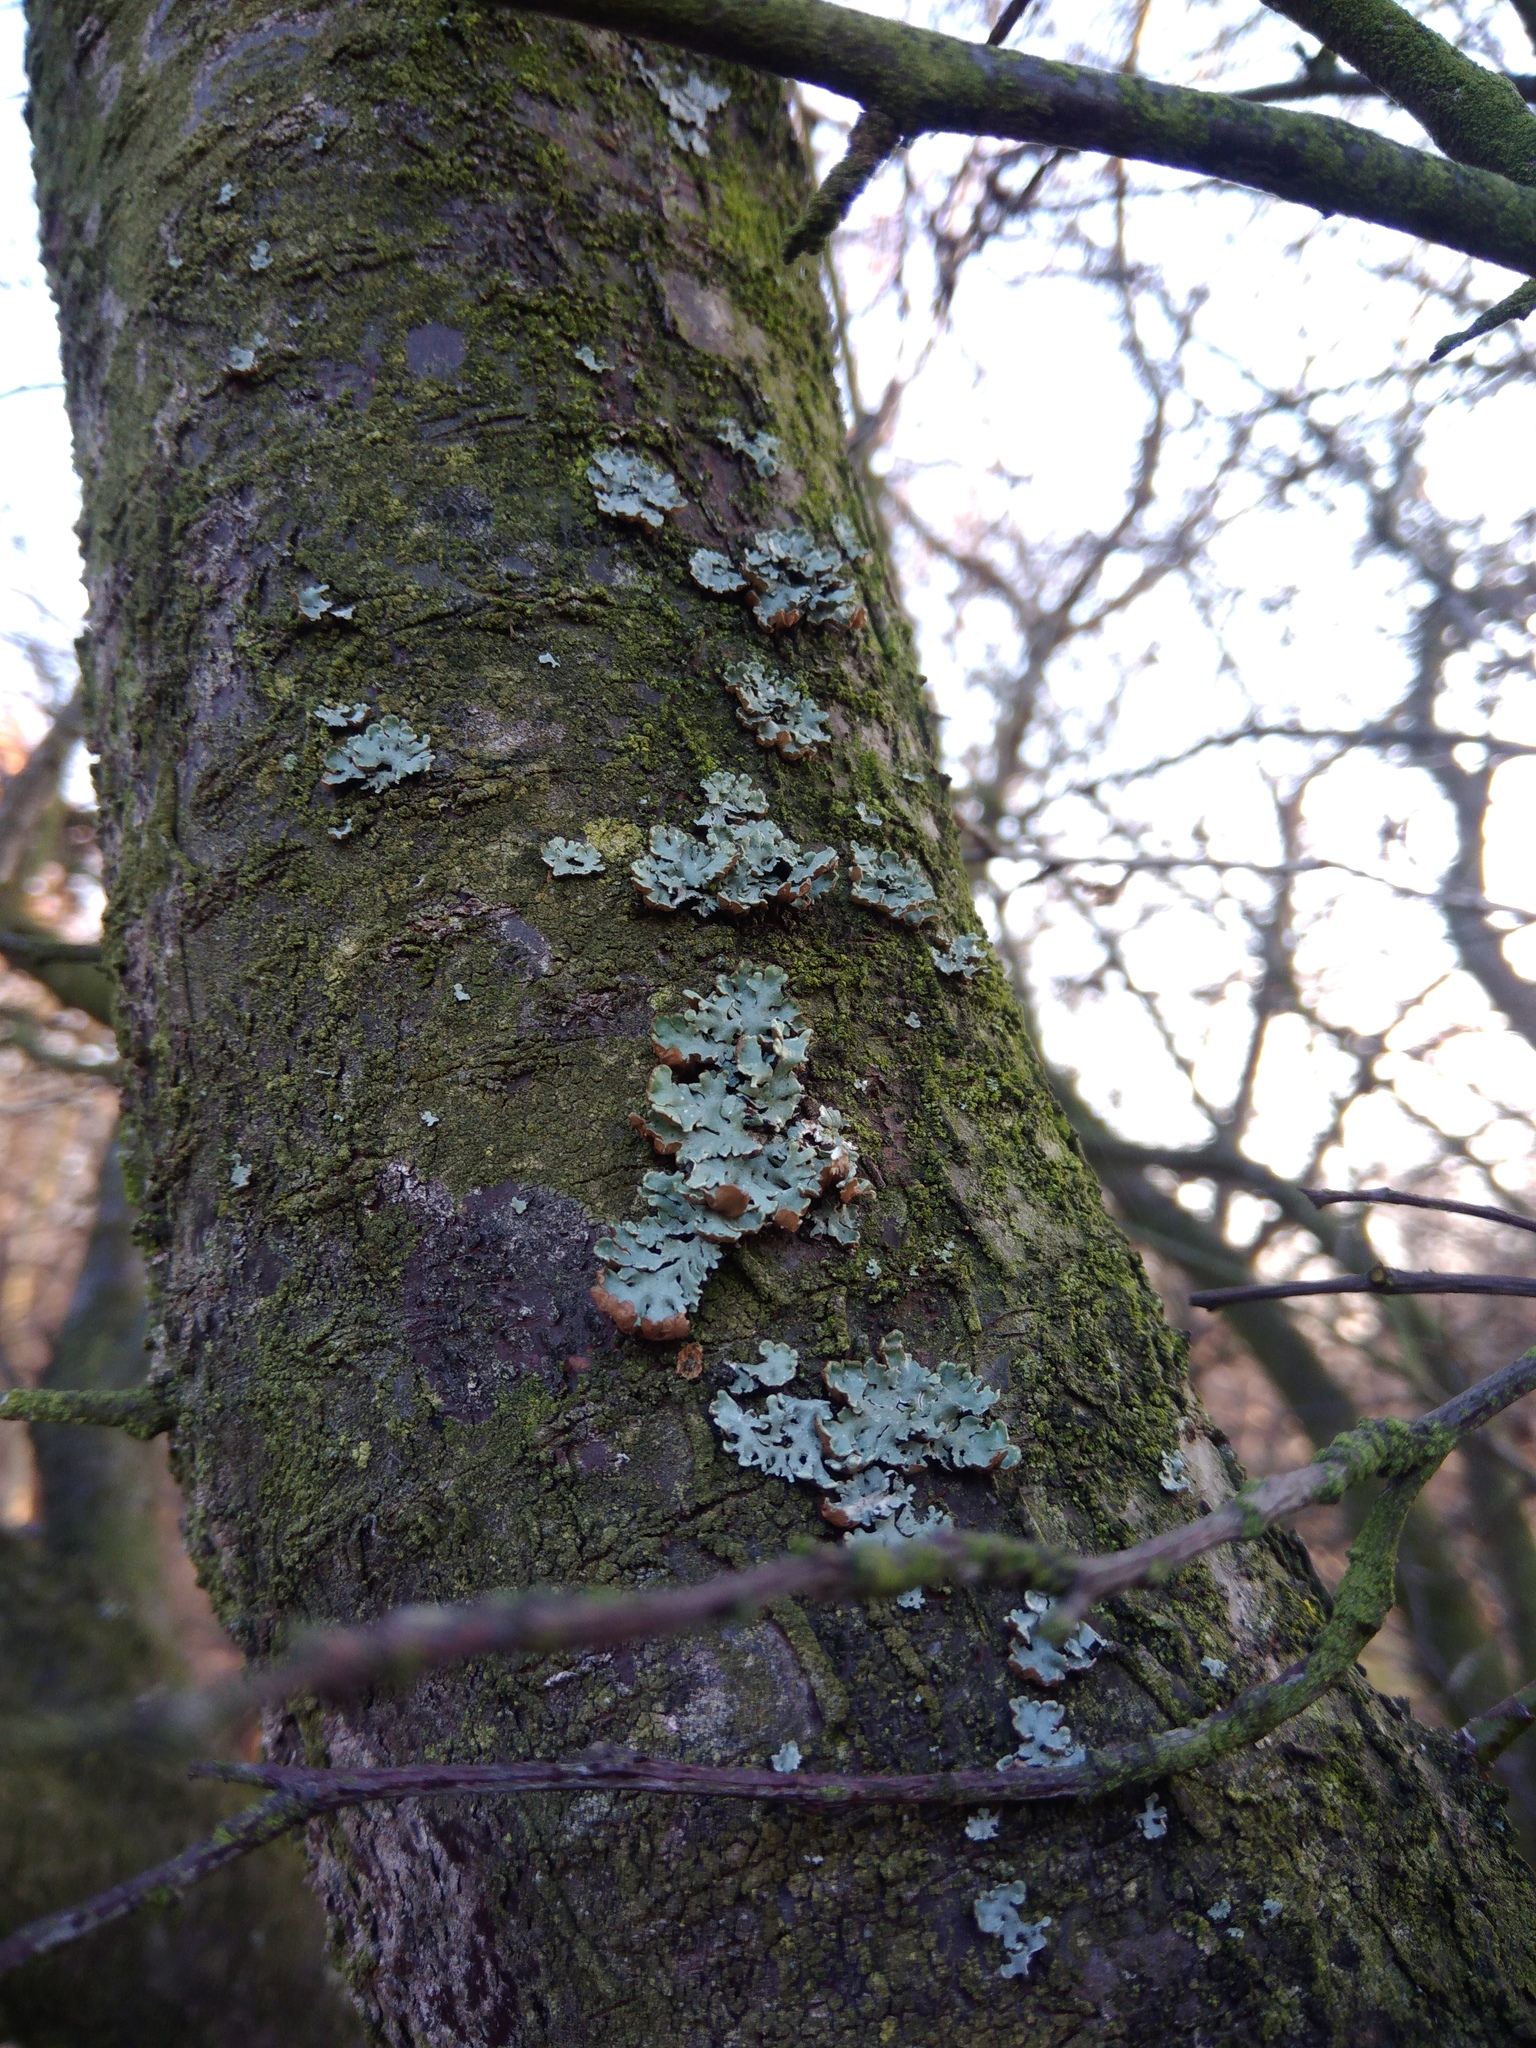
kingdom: Fungi
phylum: Ascomycota
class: Lecanoromycetes
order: Lecanorales
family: Parmeliaceae
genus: Hypogymnia
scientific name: Hypogymnia physodes
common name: Dark crottle
